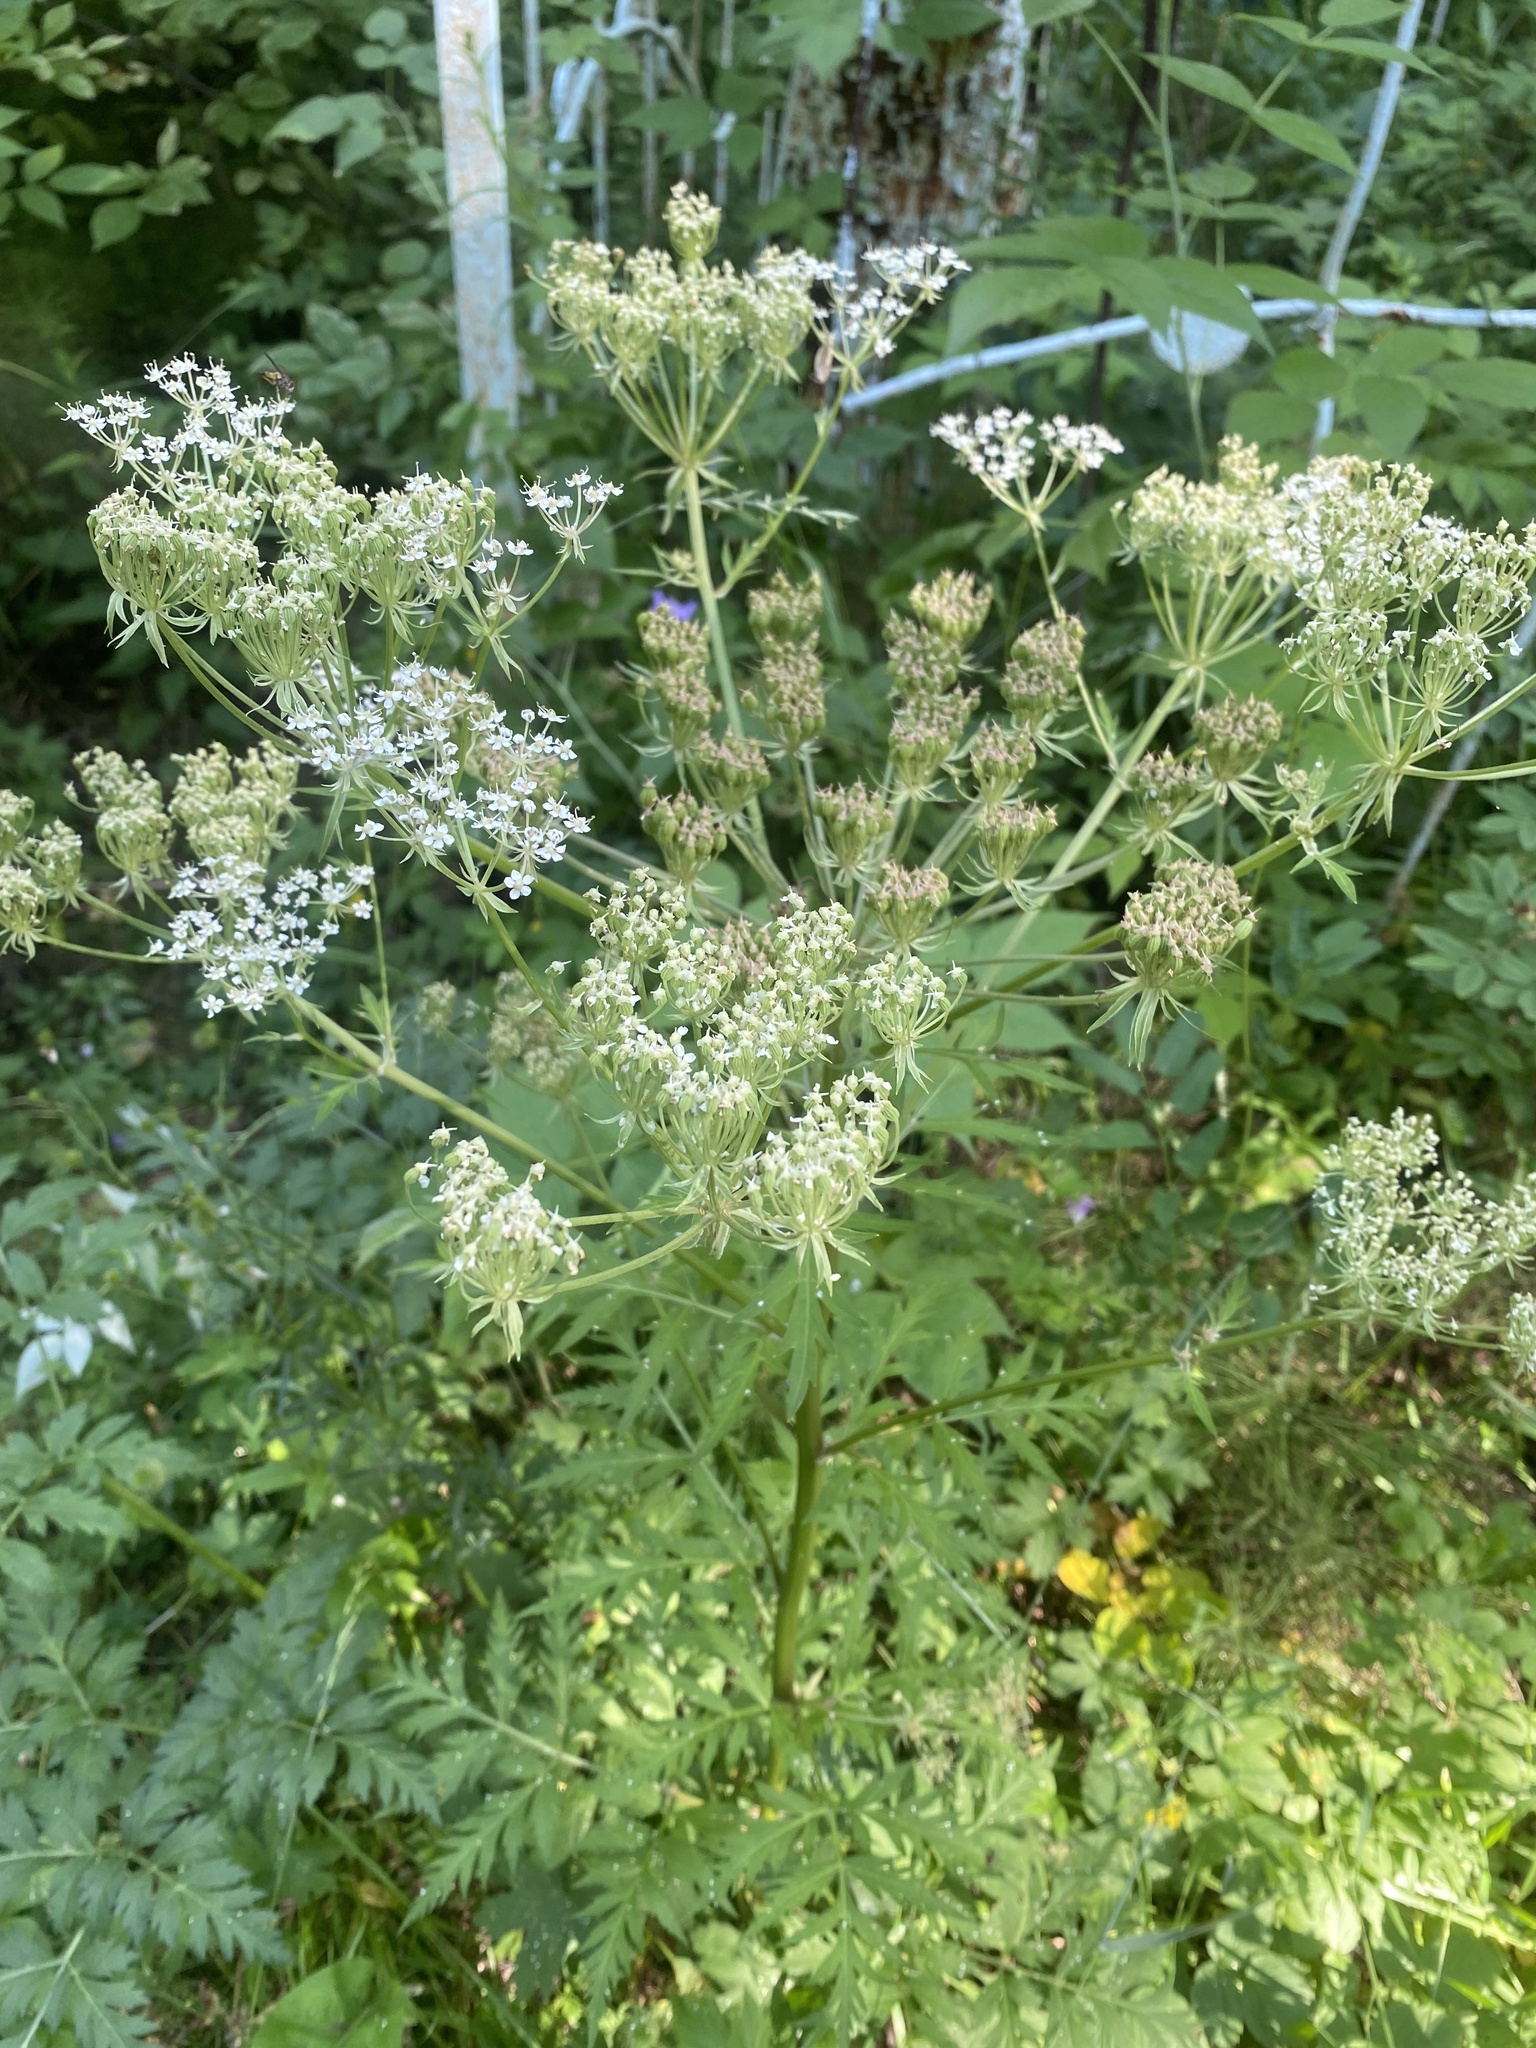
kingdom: Plantae
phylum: Tracheophyta
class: Magnoliopsida
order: Apiales
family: Apiaceae
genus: Pleurospermum
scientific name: Pleurospermum uralense
